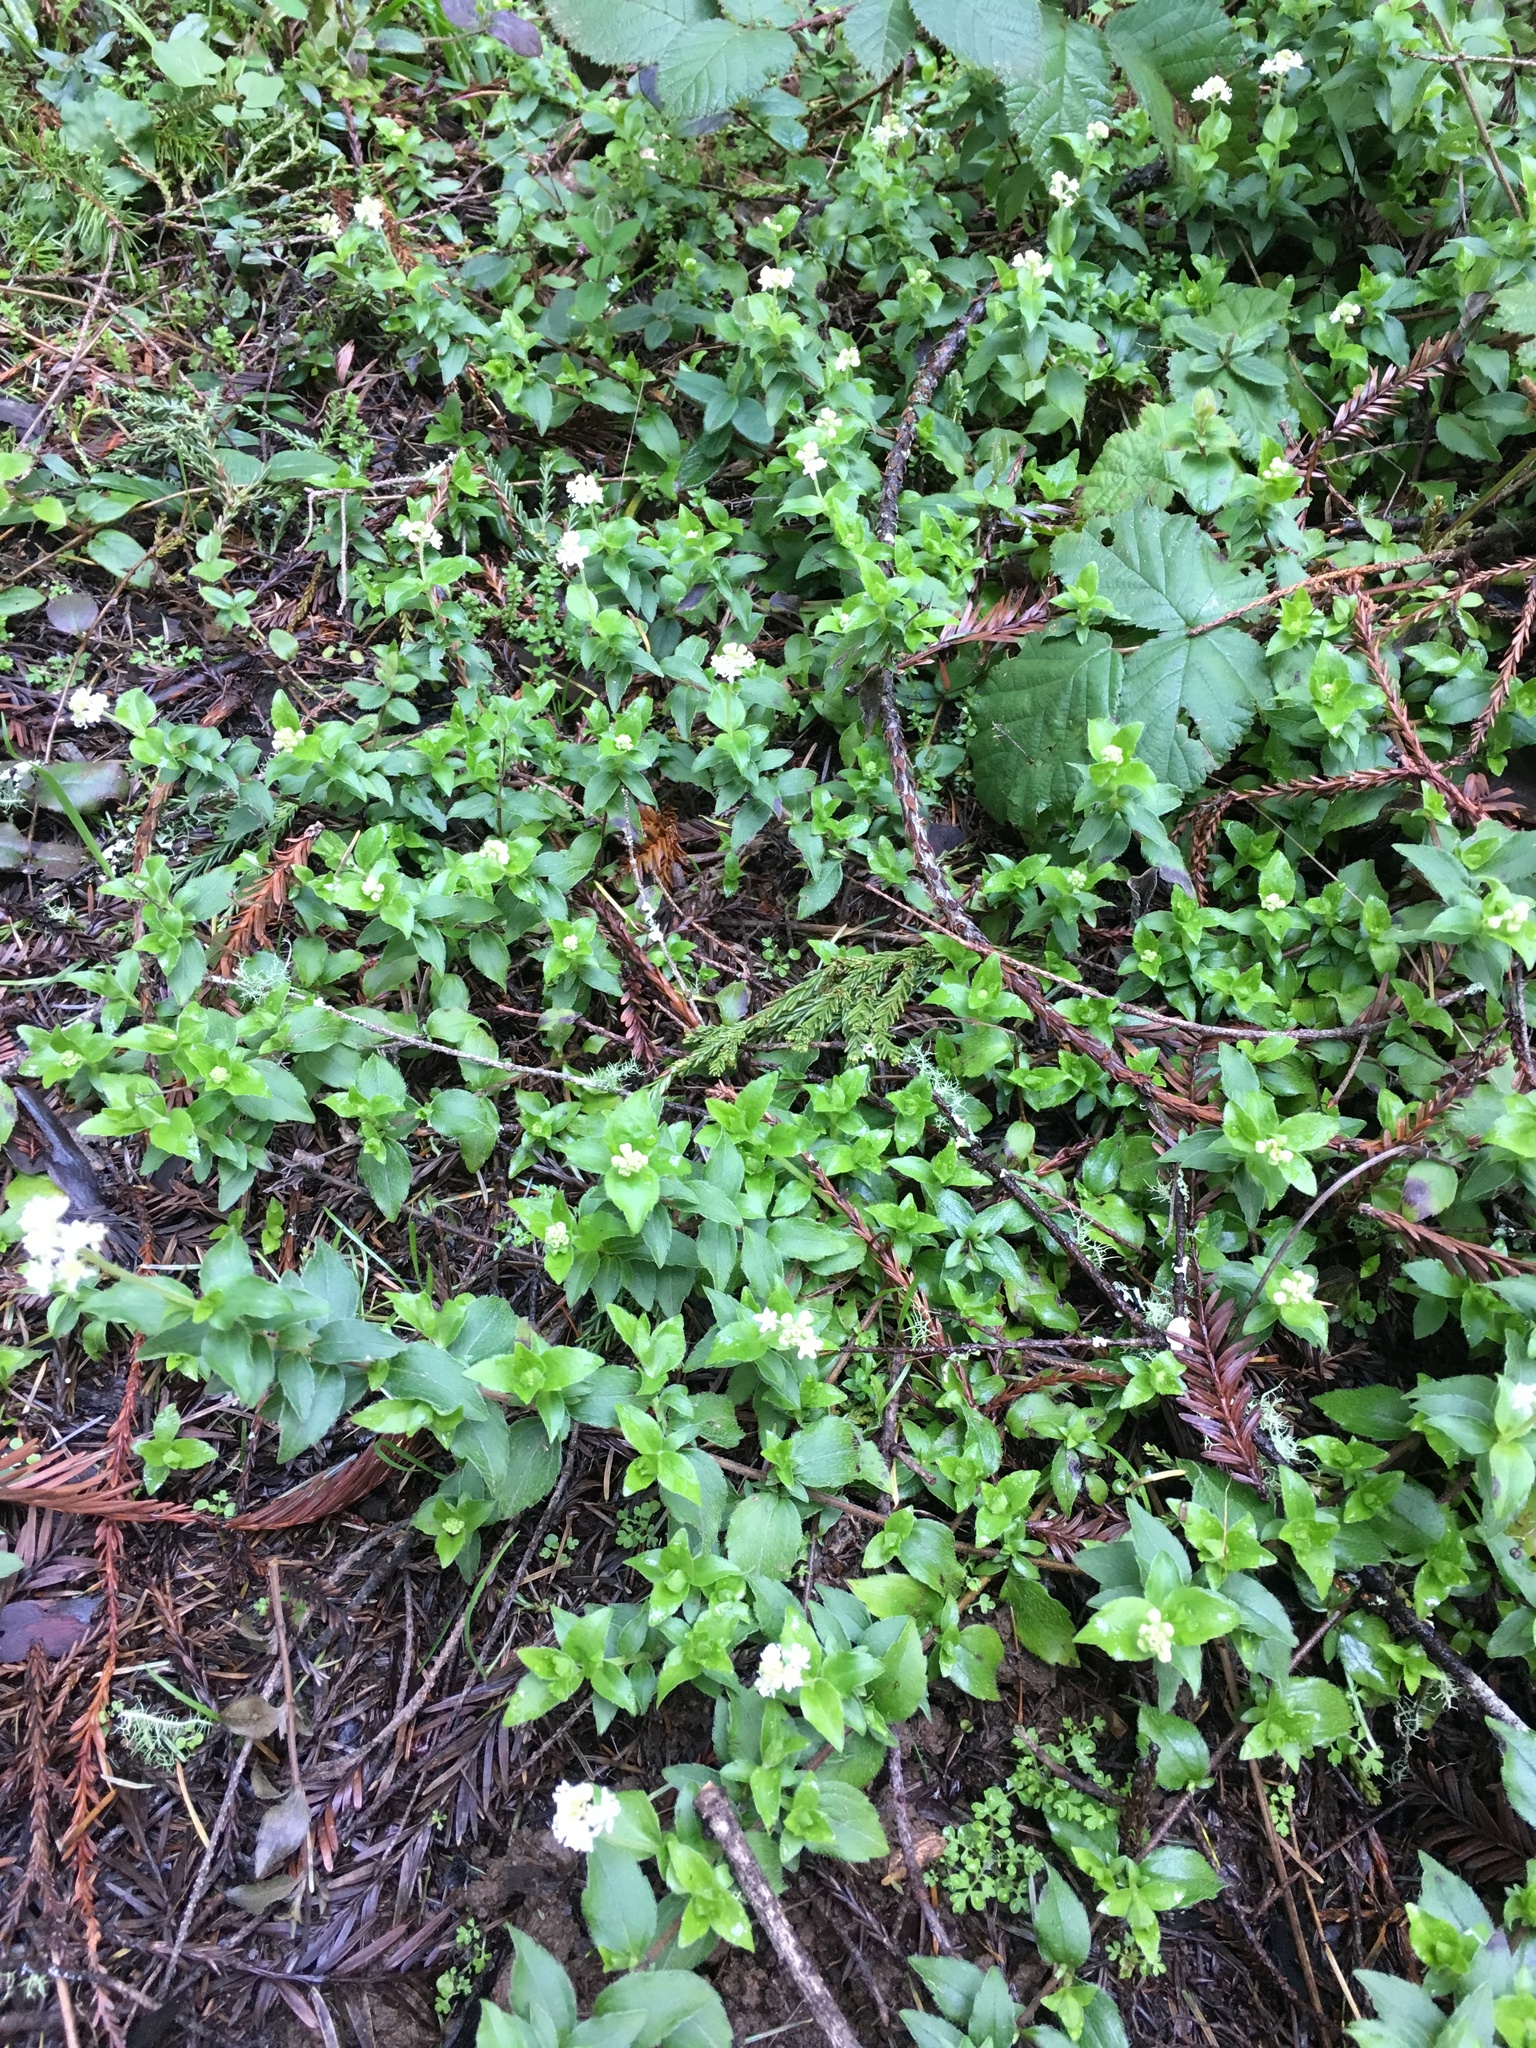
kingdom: Plantae
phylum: Tracheophyta
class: Magnoliopsida
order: Cornales
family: Hydrangeaceae
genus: Whipplea
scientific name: Whipplea modesta
